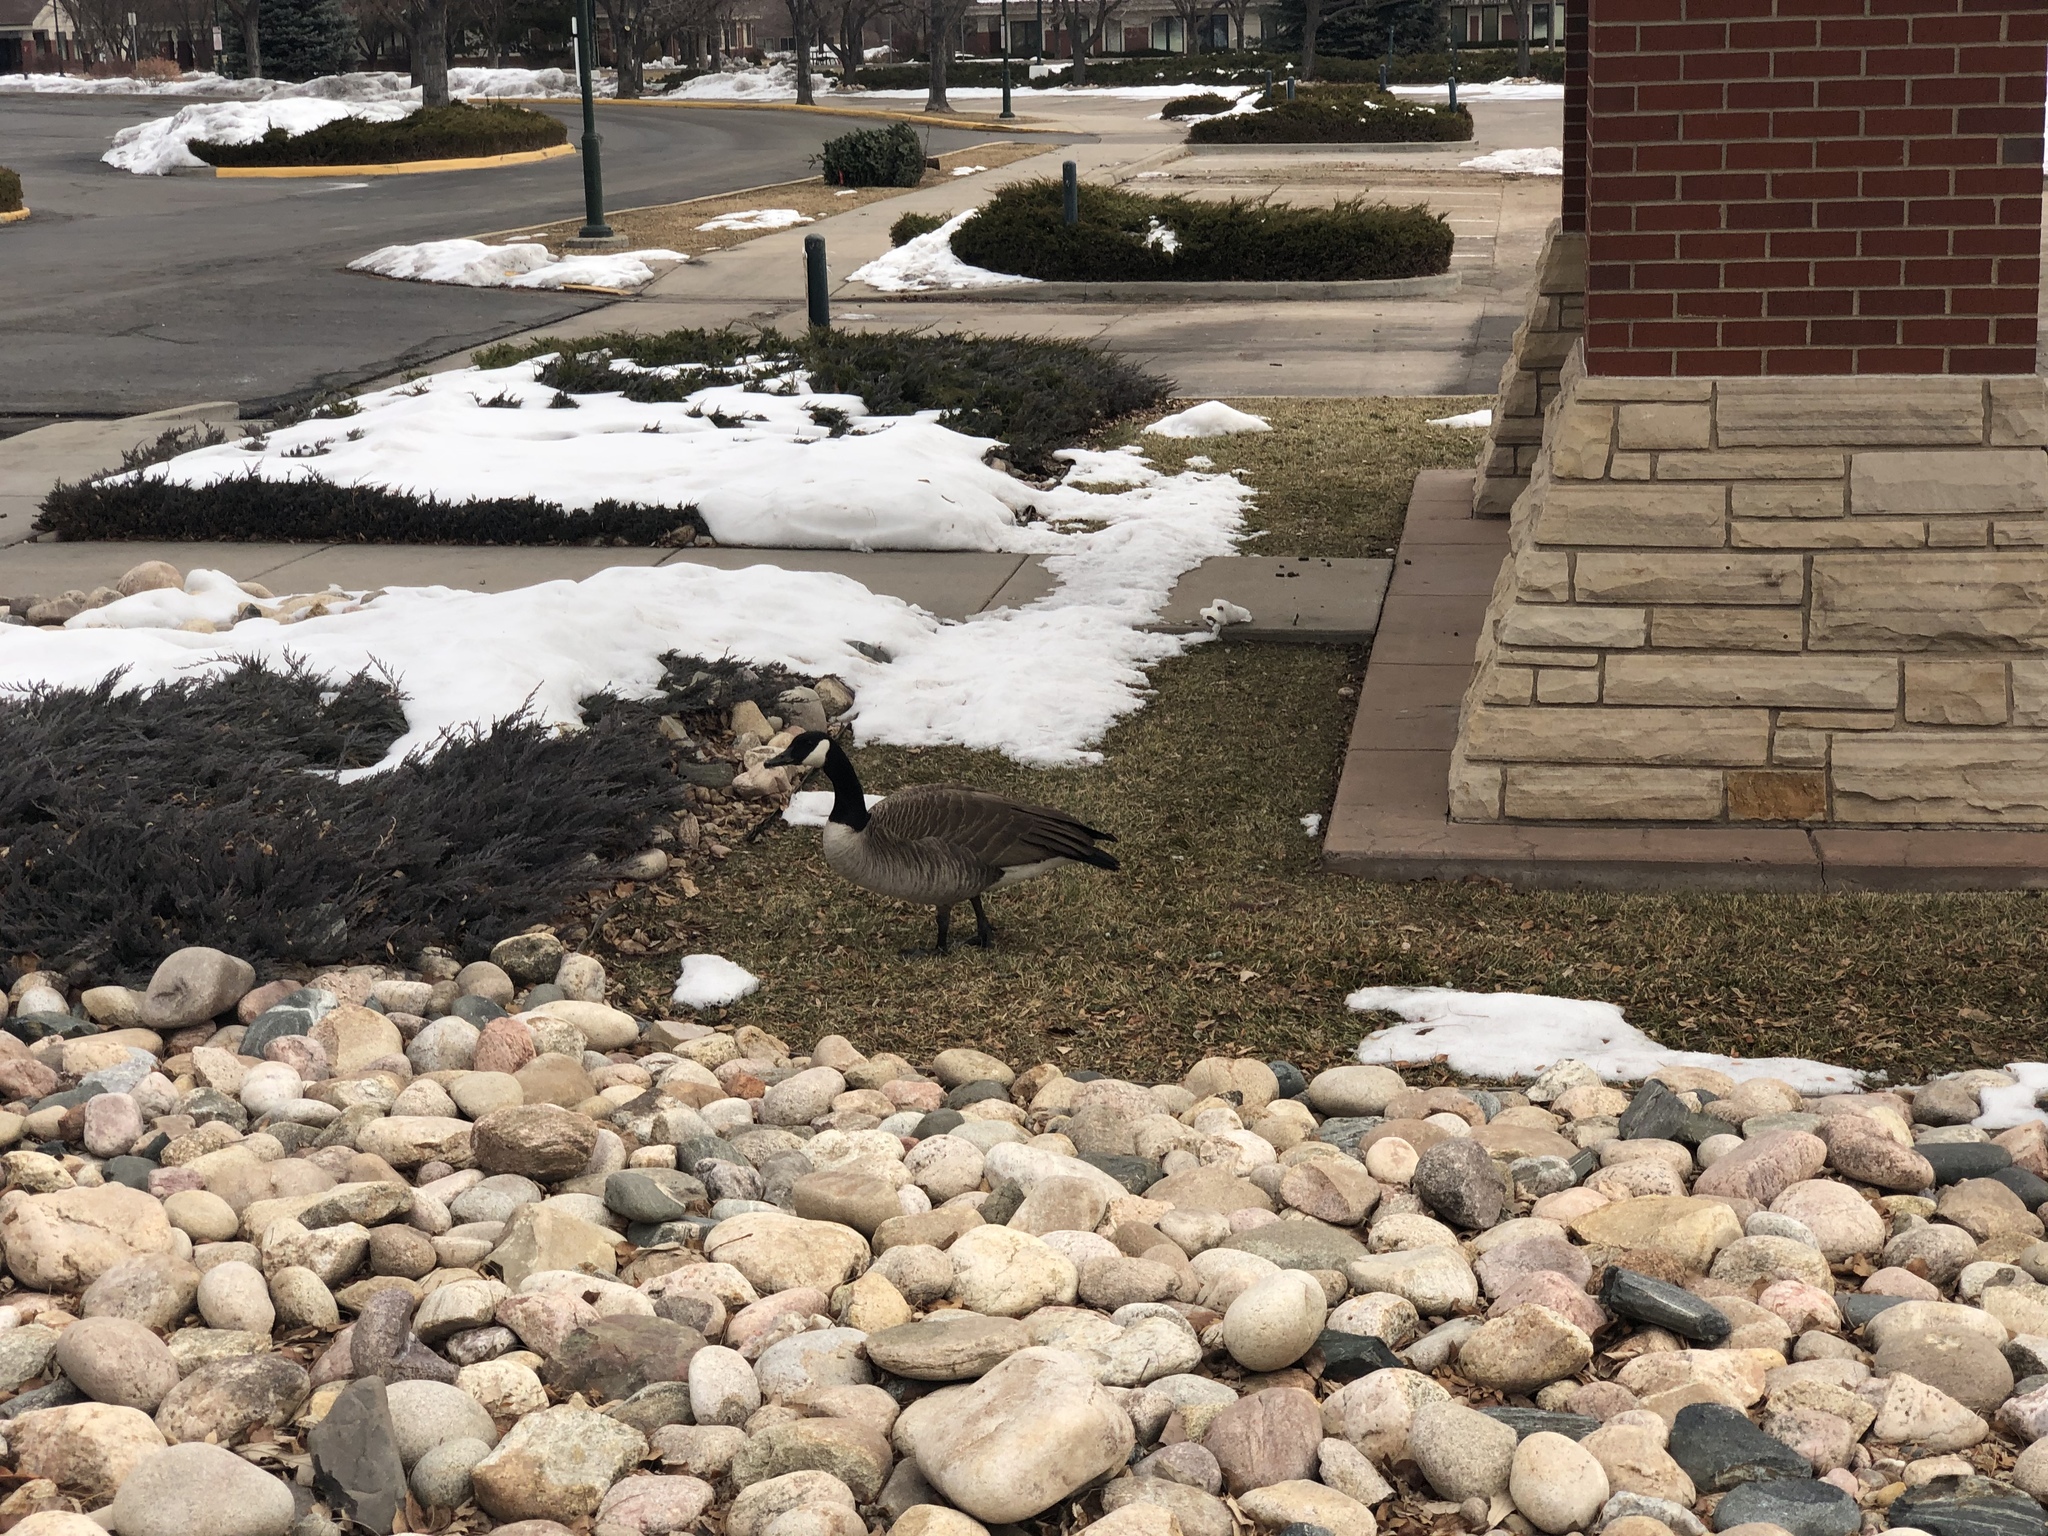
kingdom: Animalia
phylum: Chordata
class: Aves
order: Anseriformes
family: Anatidae
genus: Branta
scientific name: Branta canadensis
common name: Canada goose
